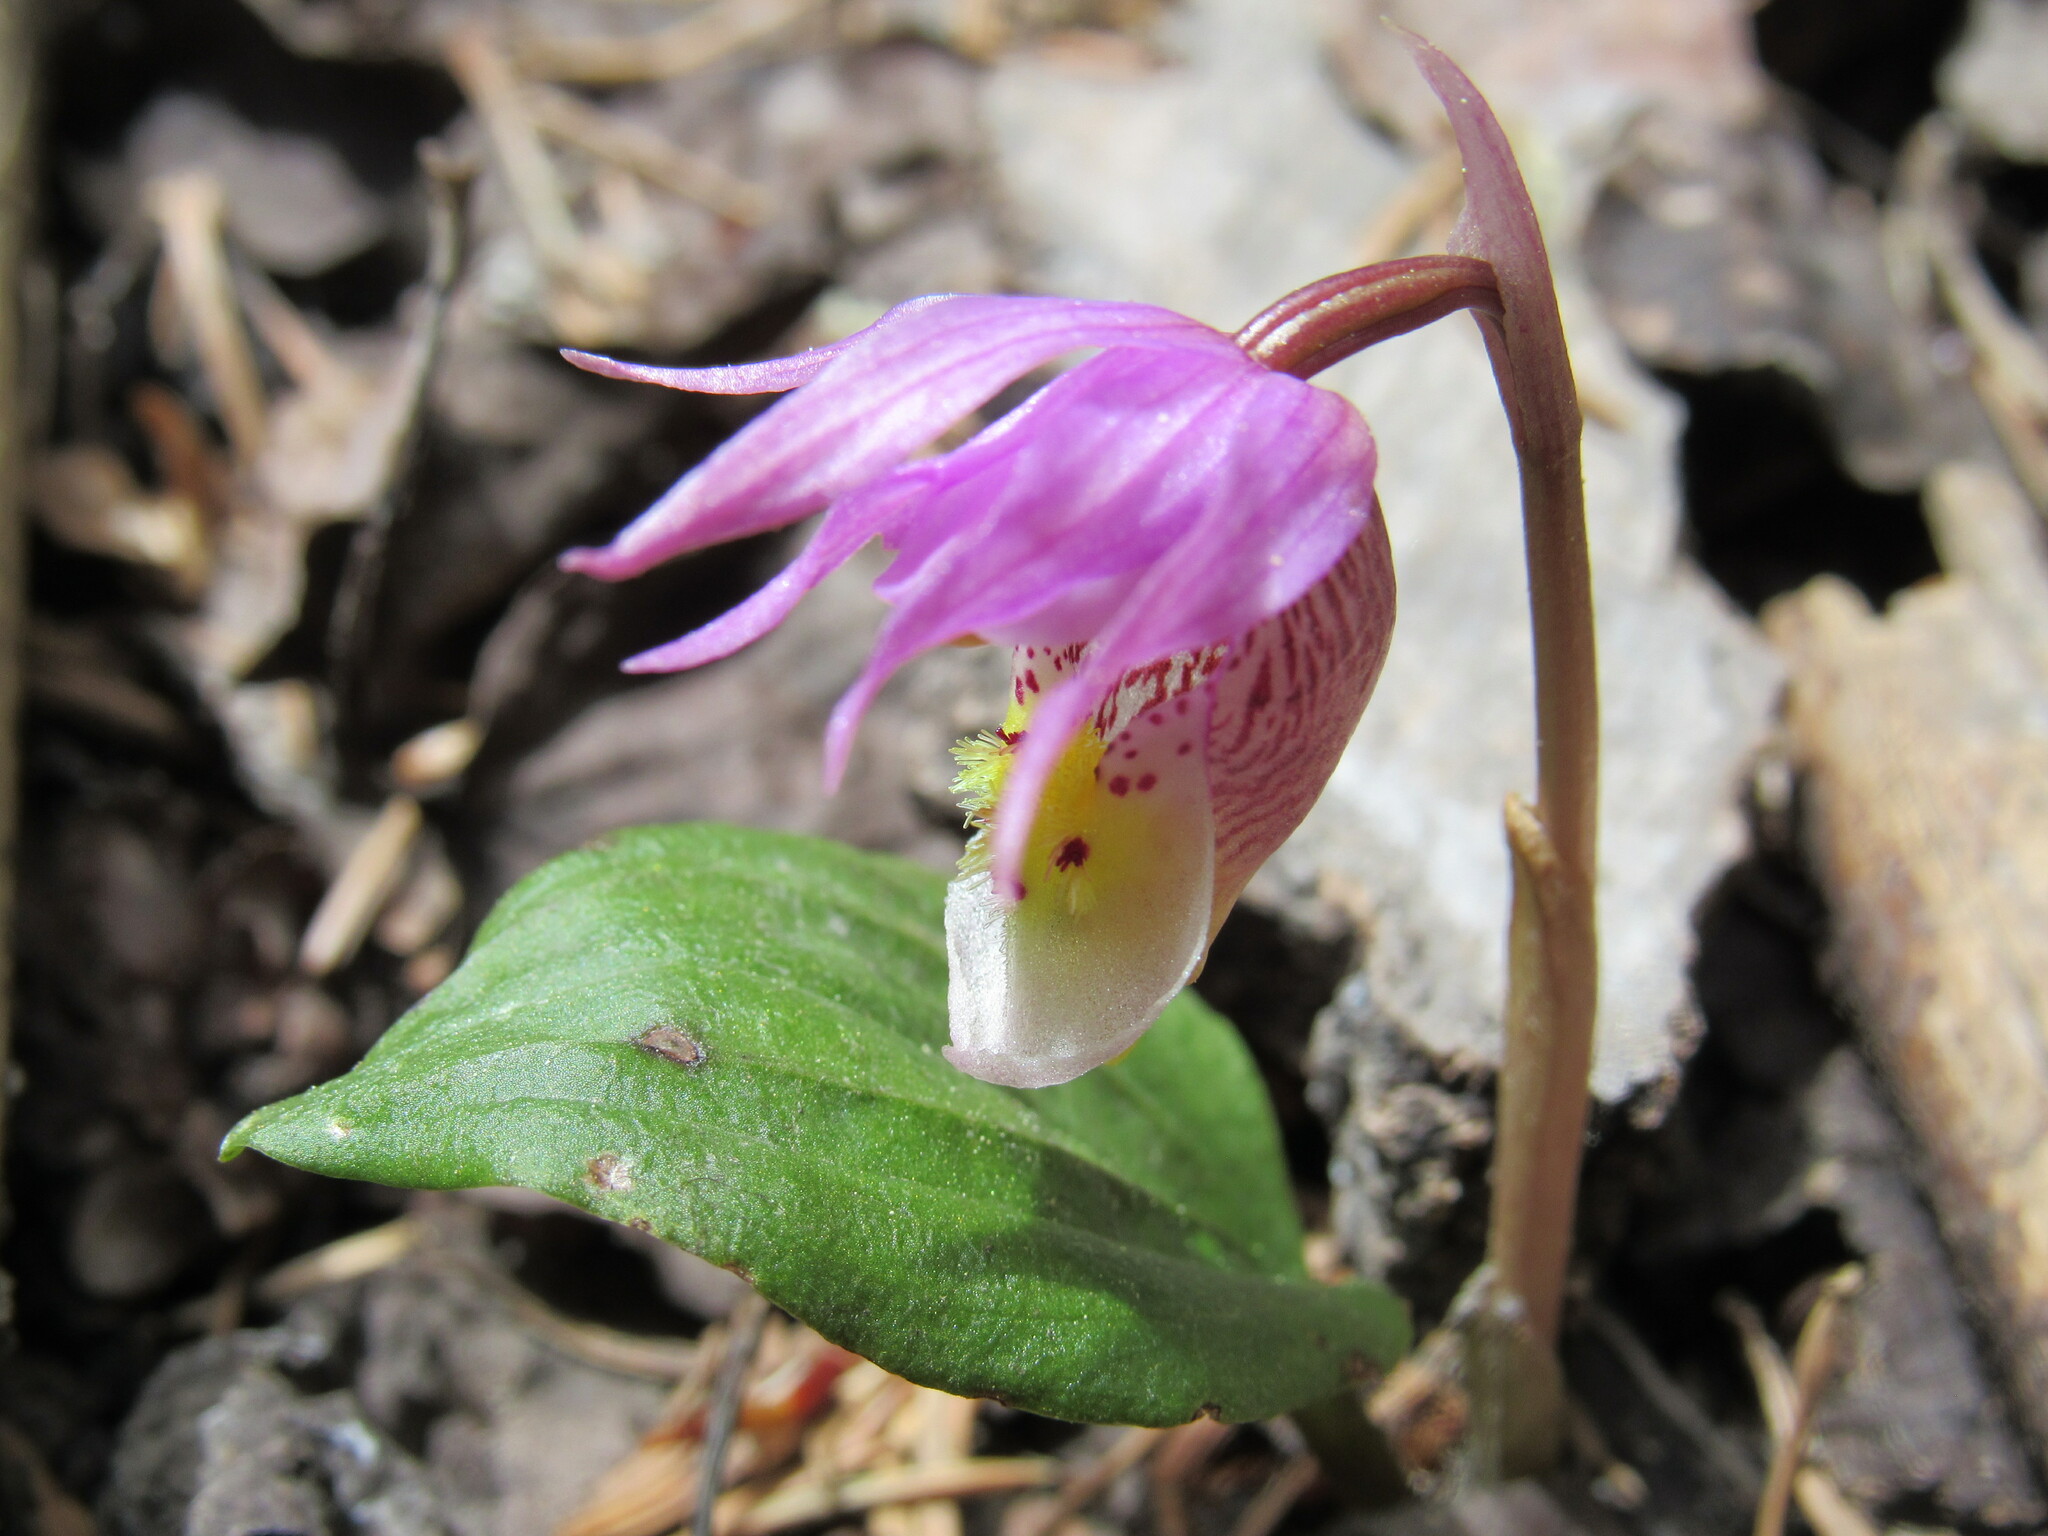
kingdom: Plantae
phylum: Tracheophyta
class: Liliopsida
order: Asparagales
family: Orchidaceae
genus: Calypso
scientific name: Calypso bulbosa
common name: Calypso
